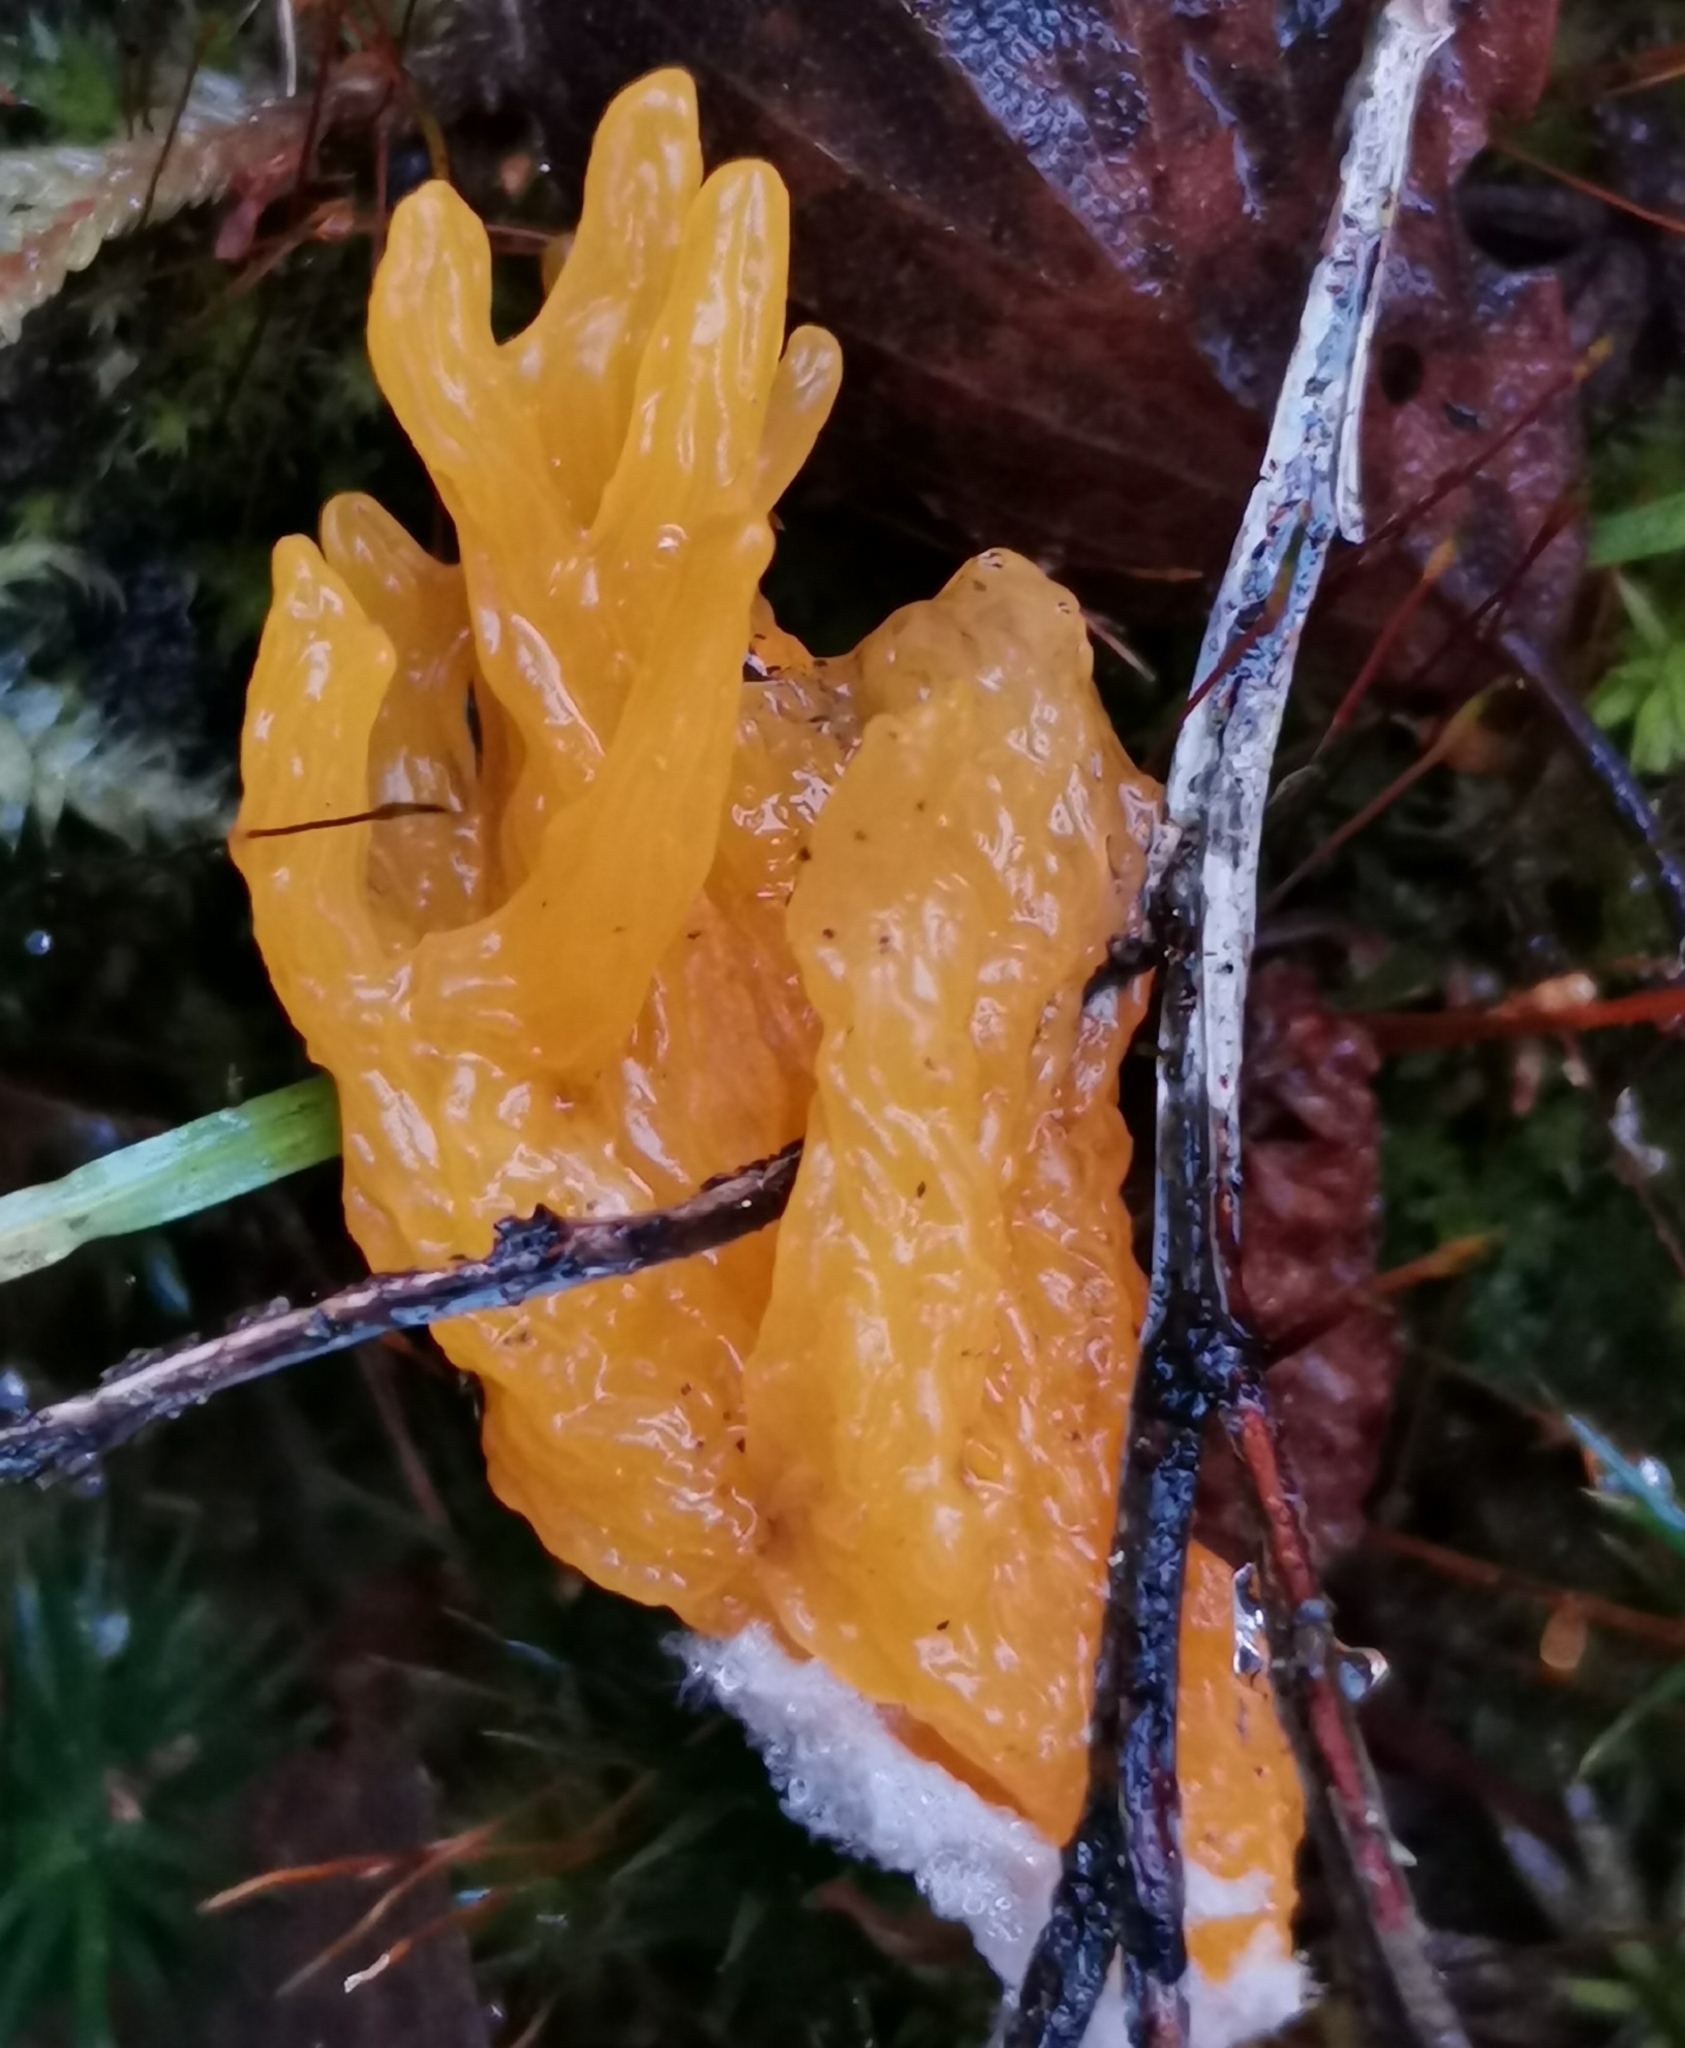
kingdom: Fungi
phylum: Basidiomycota
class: Dacrymycetes
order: Dacrymycetales
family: Dacrymycetaceae
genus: Calocera
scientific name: Calocera viscosa
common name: Yellow stagshorn
